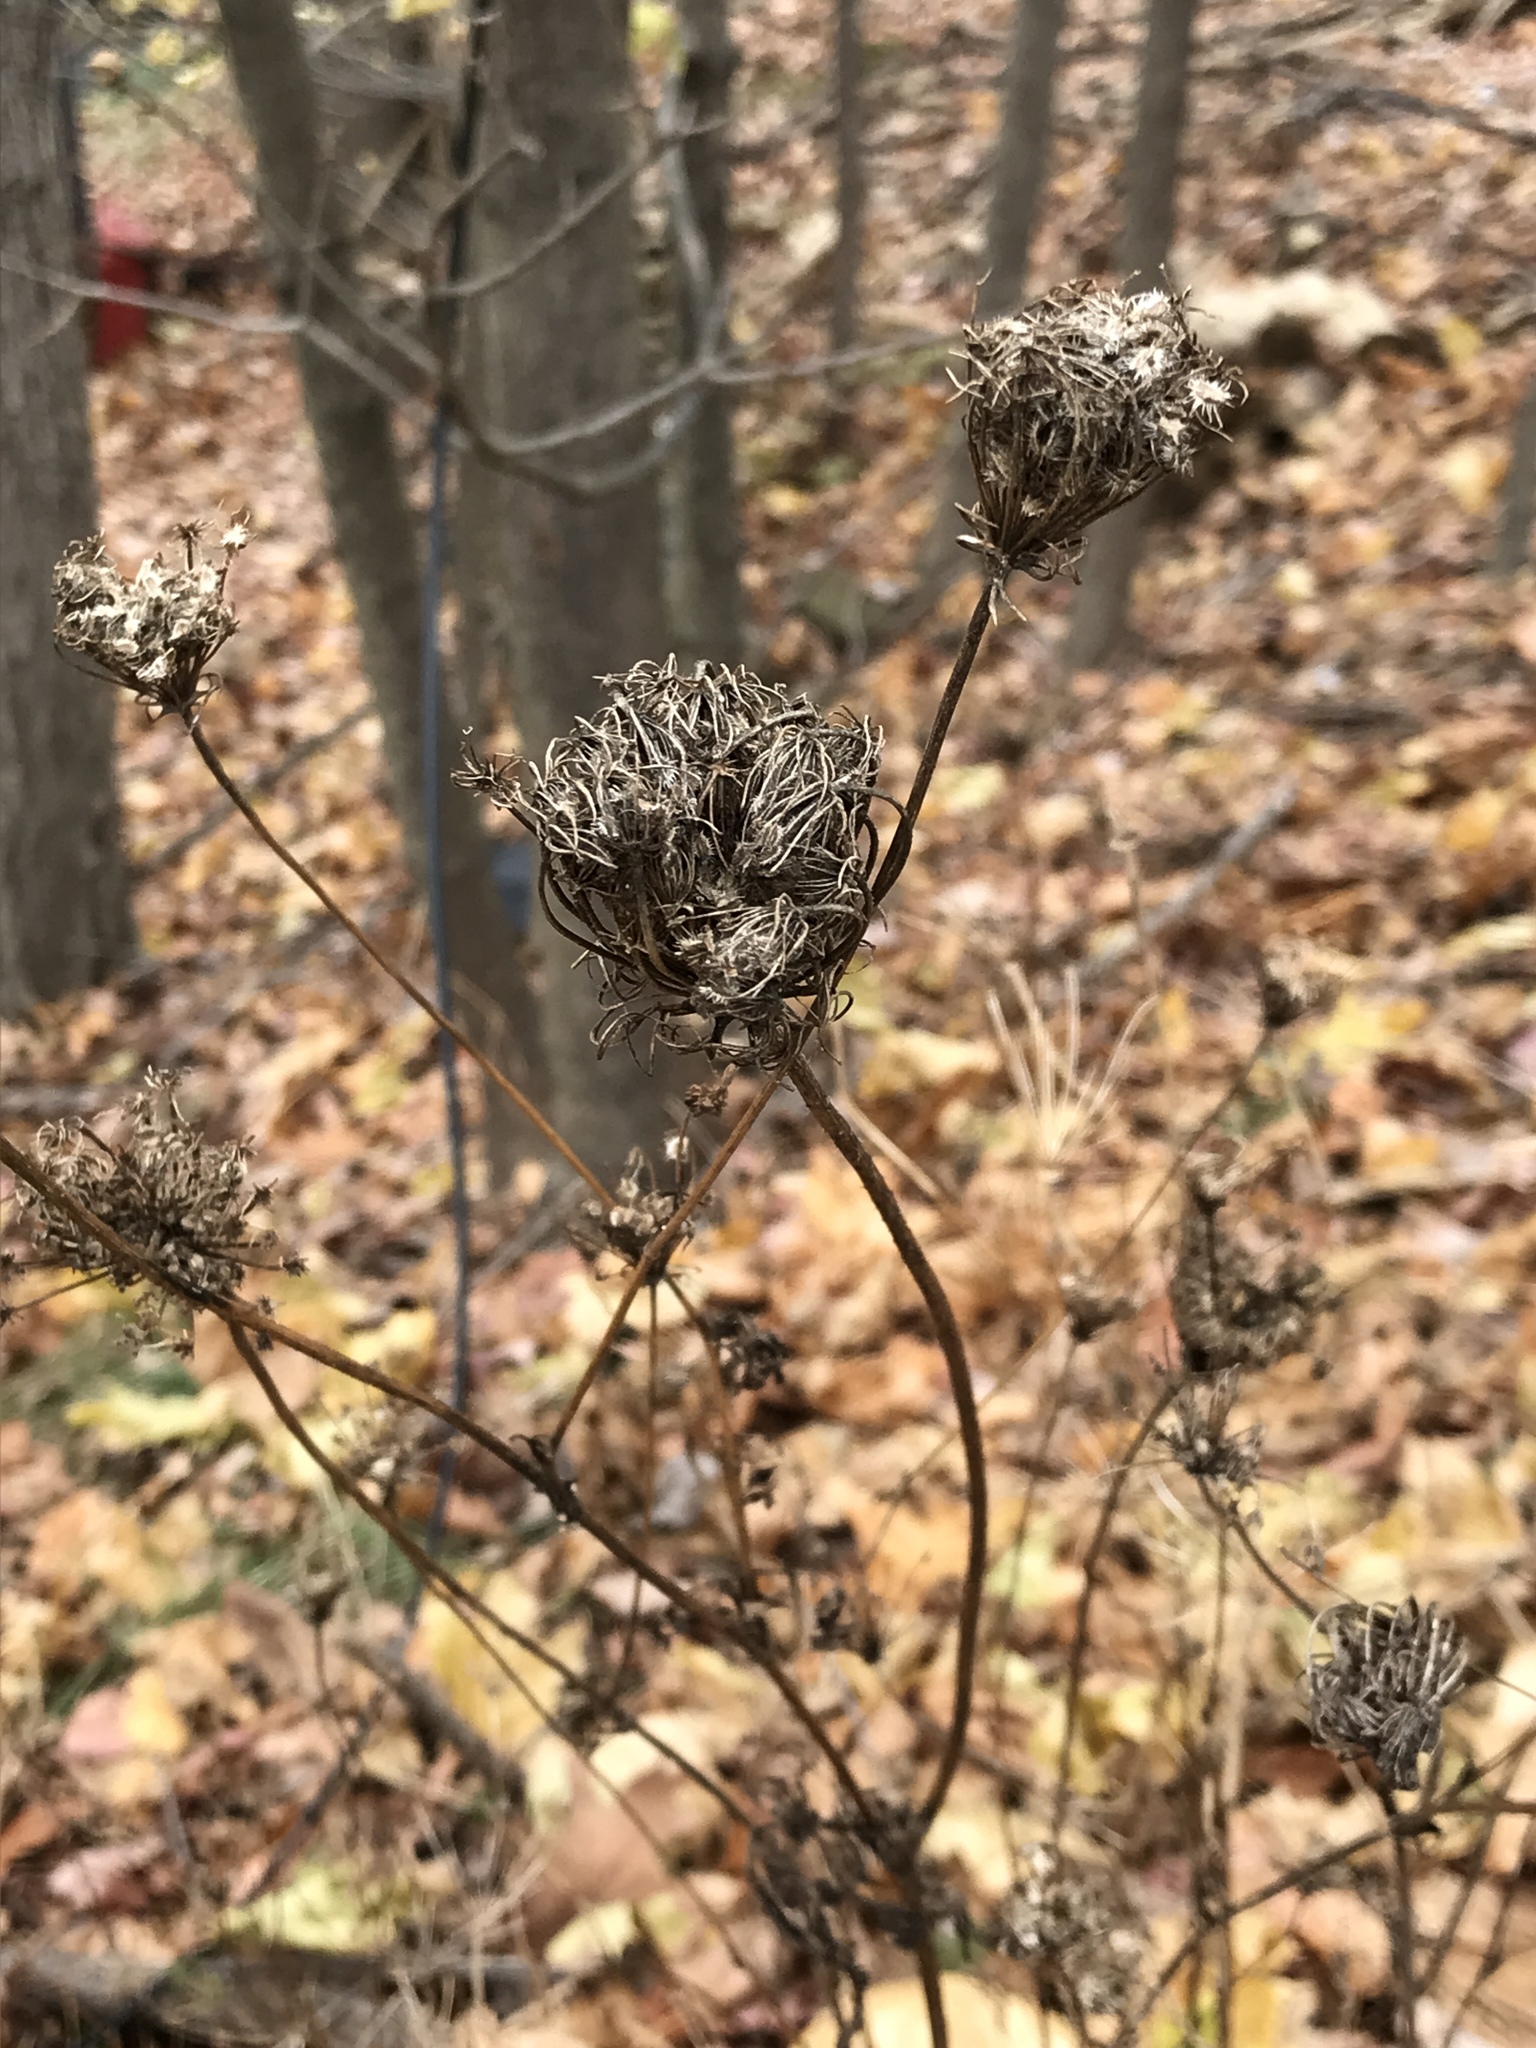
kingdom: Plantae
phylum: Tracheophyta
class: Magnoliopsida
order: Apiales
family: Apiaceae
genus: Daucus
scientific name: Daucus carota
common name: Wild carrot
